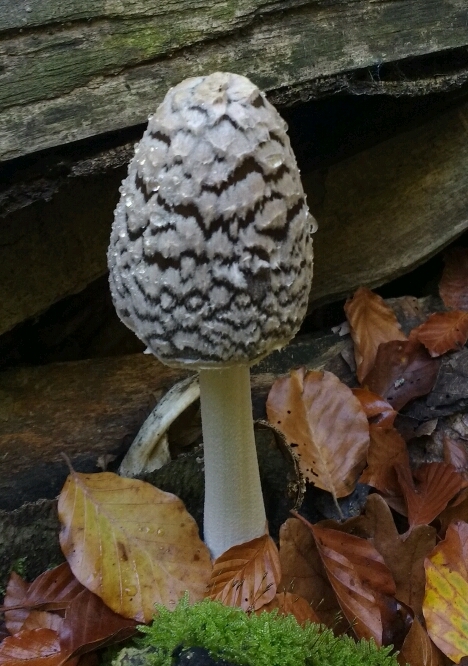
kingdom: Fungi
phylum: Basidiomycota
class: Agaricomycetes
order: Agaricales
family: Psathyrellaceae
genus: Coprinopsis
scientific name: Coprinopsis picacea
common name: Magpie inkcap
